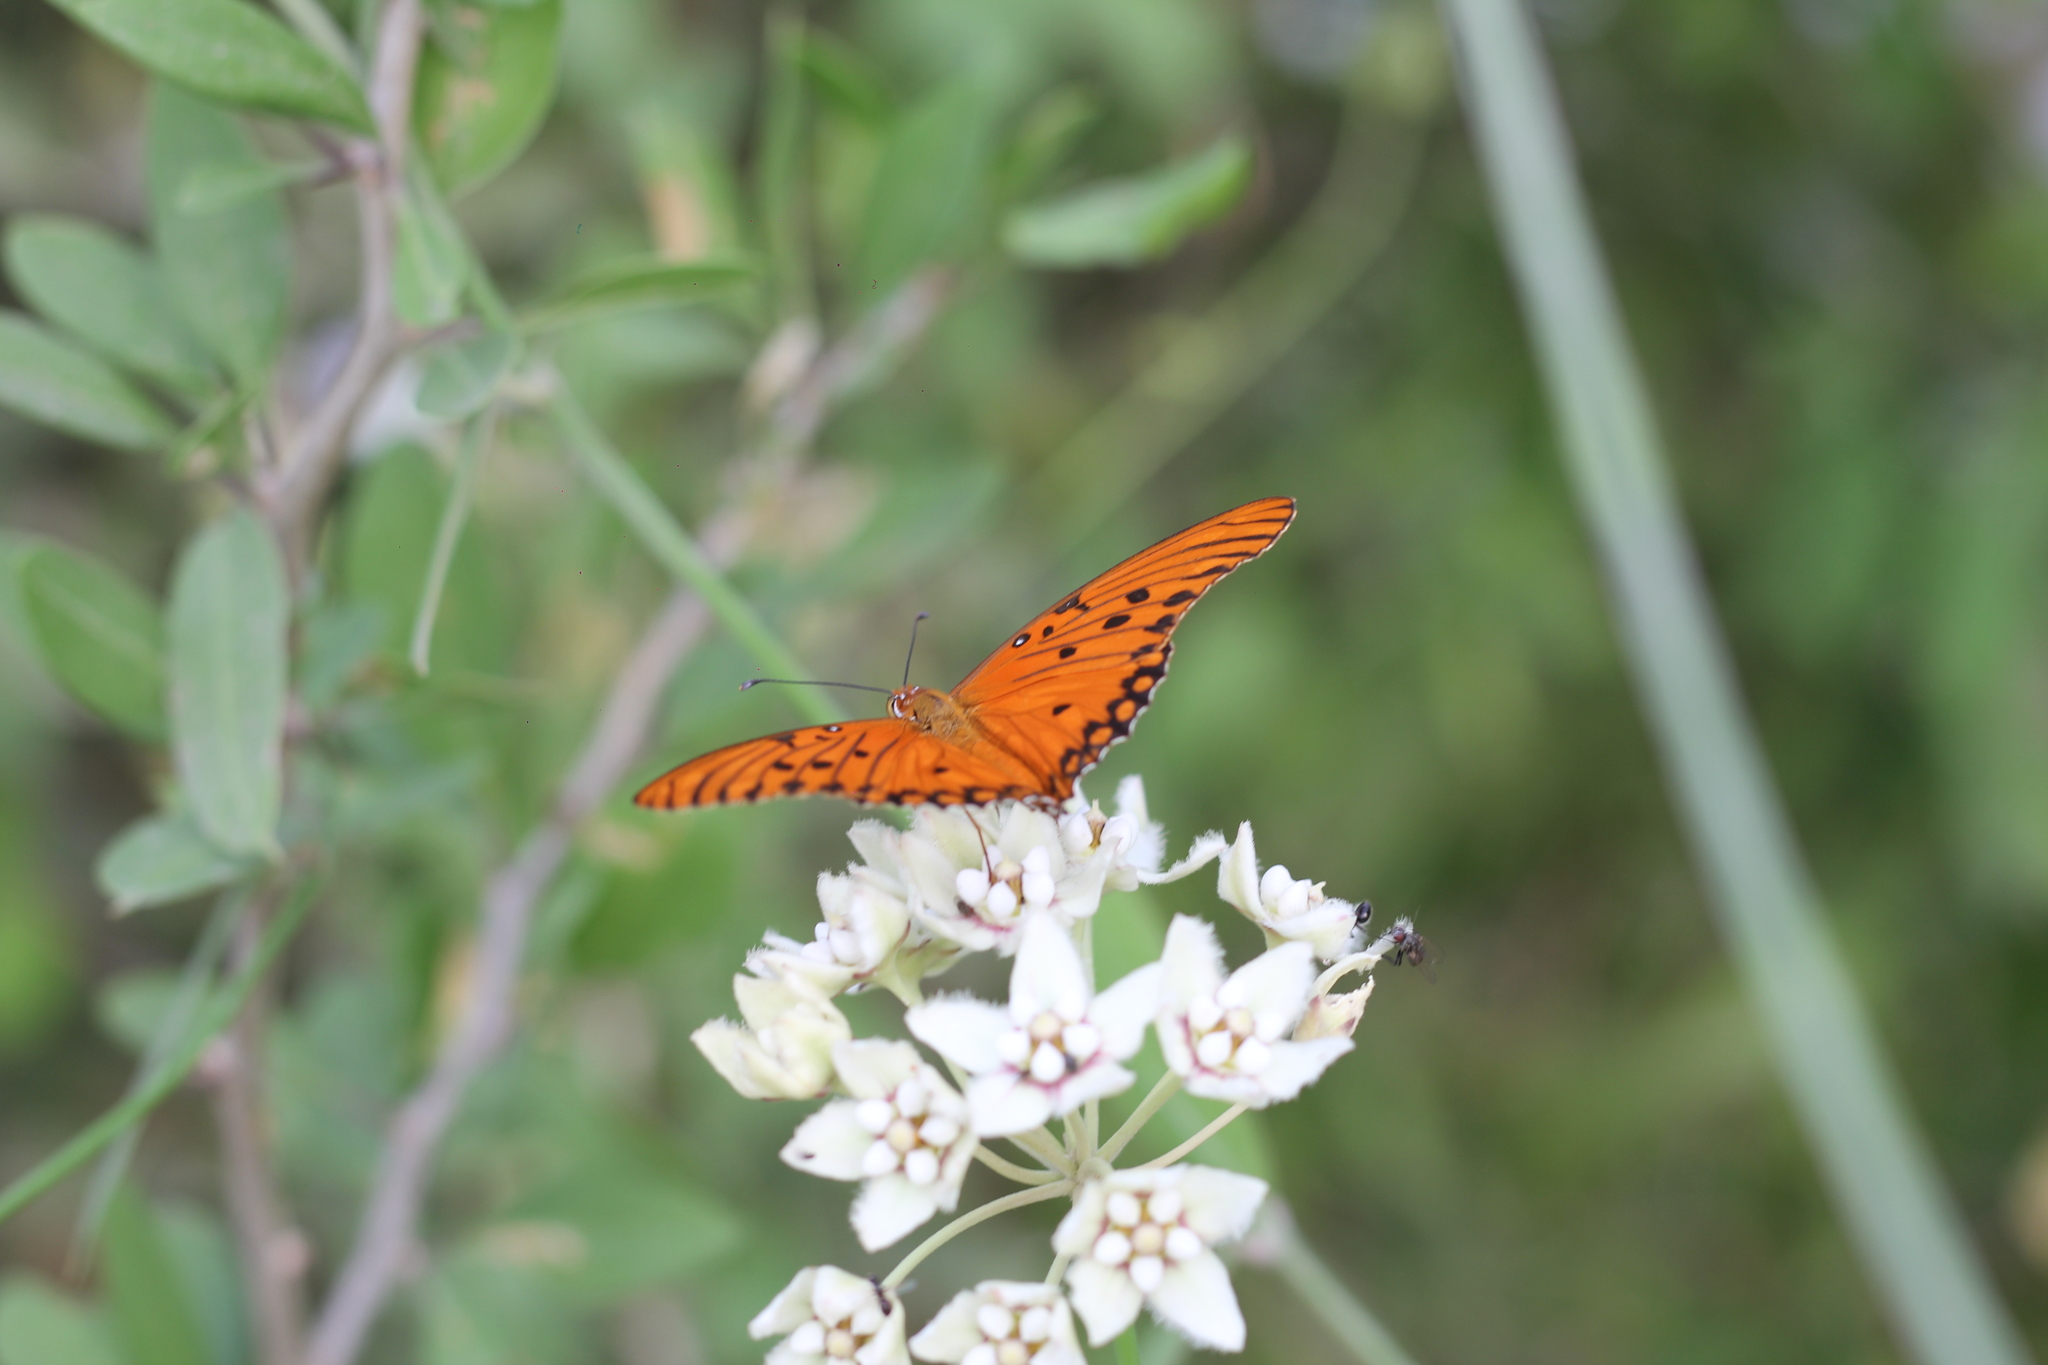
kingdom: Animalia
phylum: Arthropoda
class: Insecta
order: Lepidoptera
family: Nymphalidae
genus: Dione
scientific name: Dione vanillae
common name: Gulf fritillary
